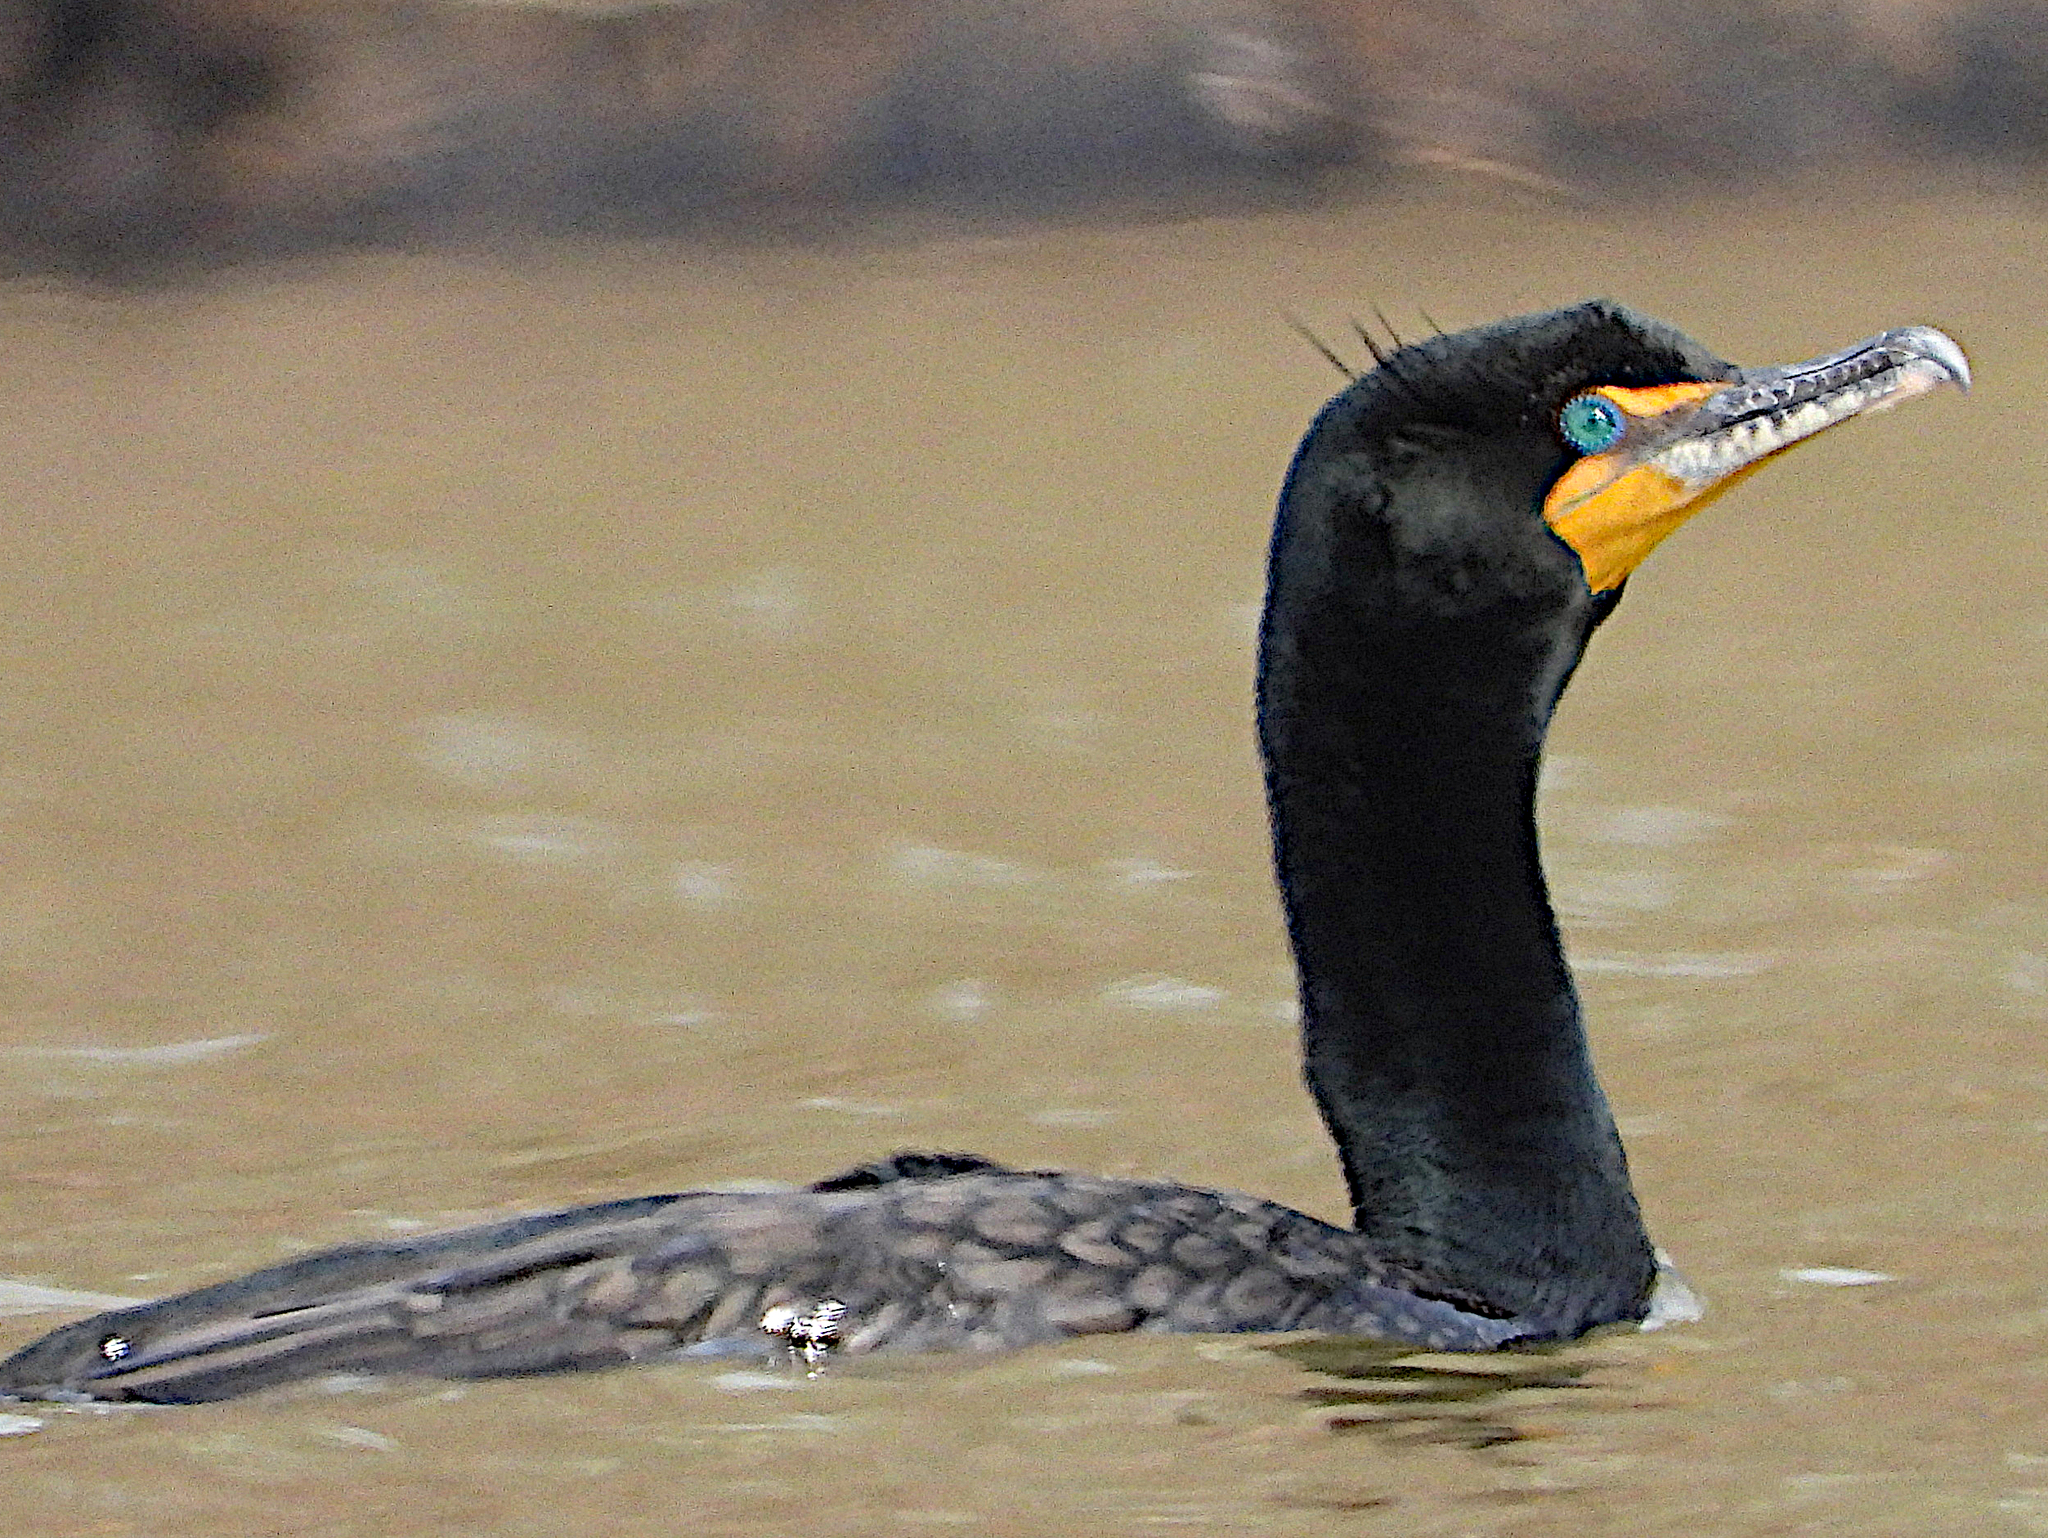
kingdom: Animalia
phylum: Chordata
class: Aves
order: Suliformes
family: Phalacrocoracidae
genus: Phalacrocorax
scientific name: Phalacrocorax auritus
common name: Double-crested cormorant
